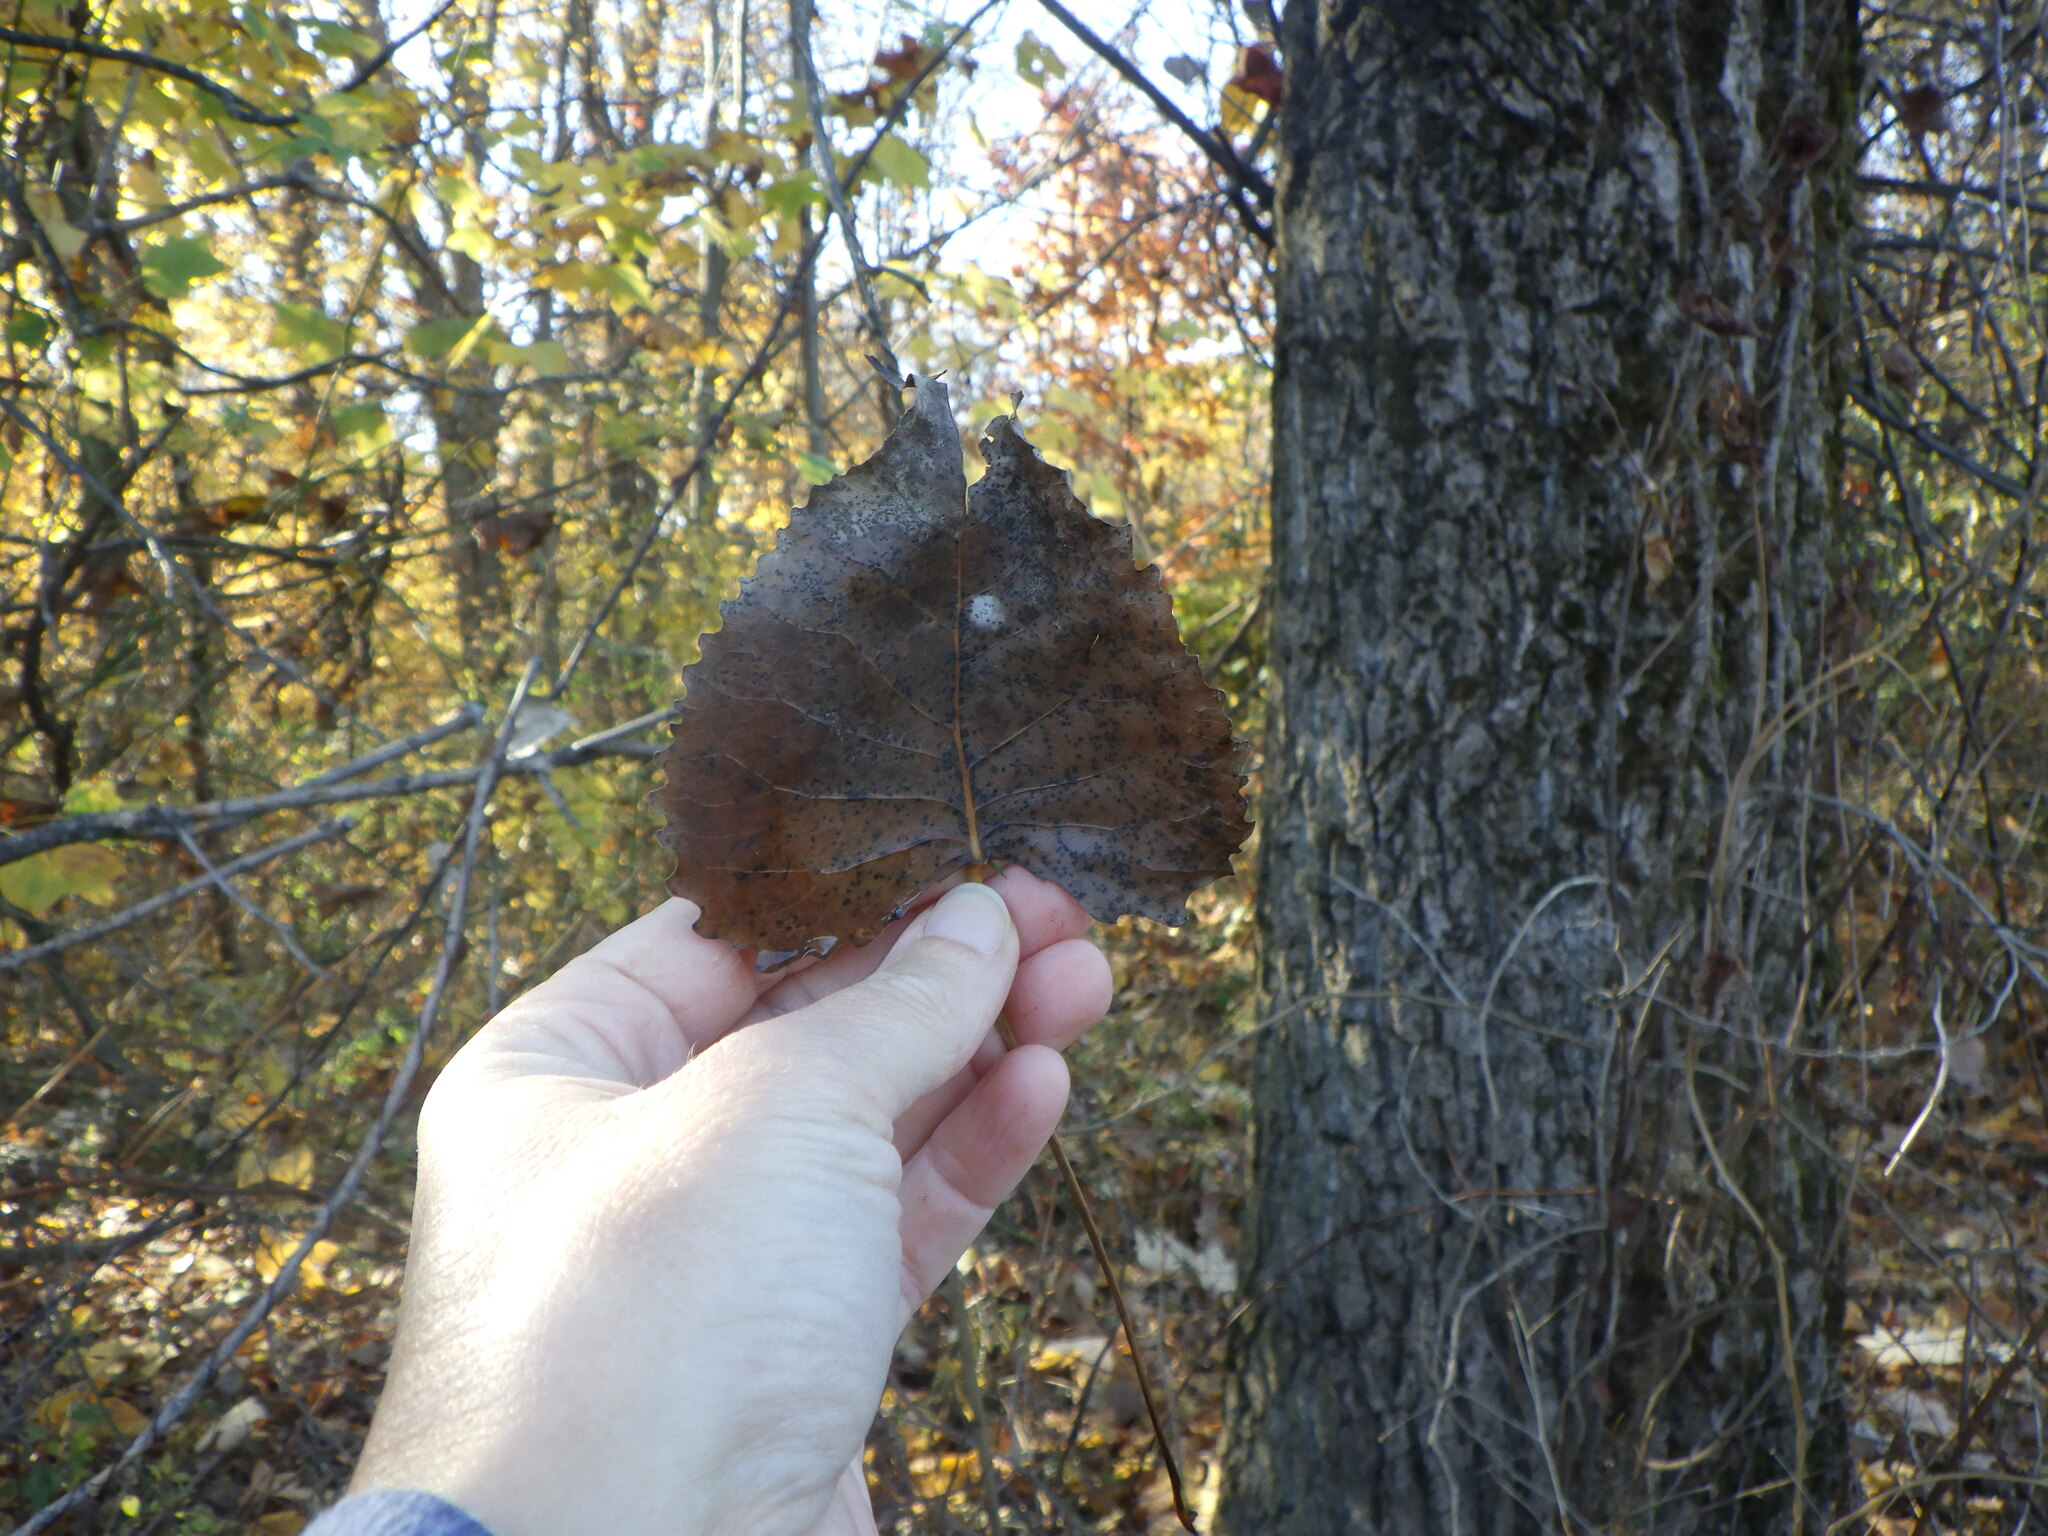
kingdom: Plantae
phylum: Tracheophyta
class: Magnoliopsida
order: Malpighiales
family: Salicaceae
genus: Populus
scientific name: Populus deltoides
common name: Eastern cottonwood
